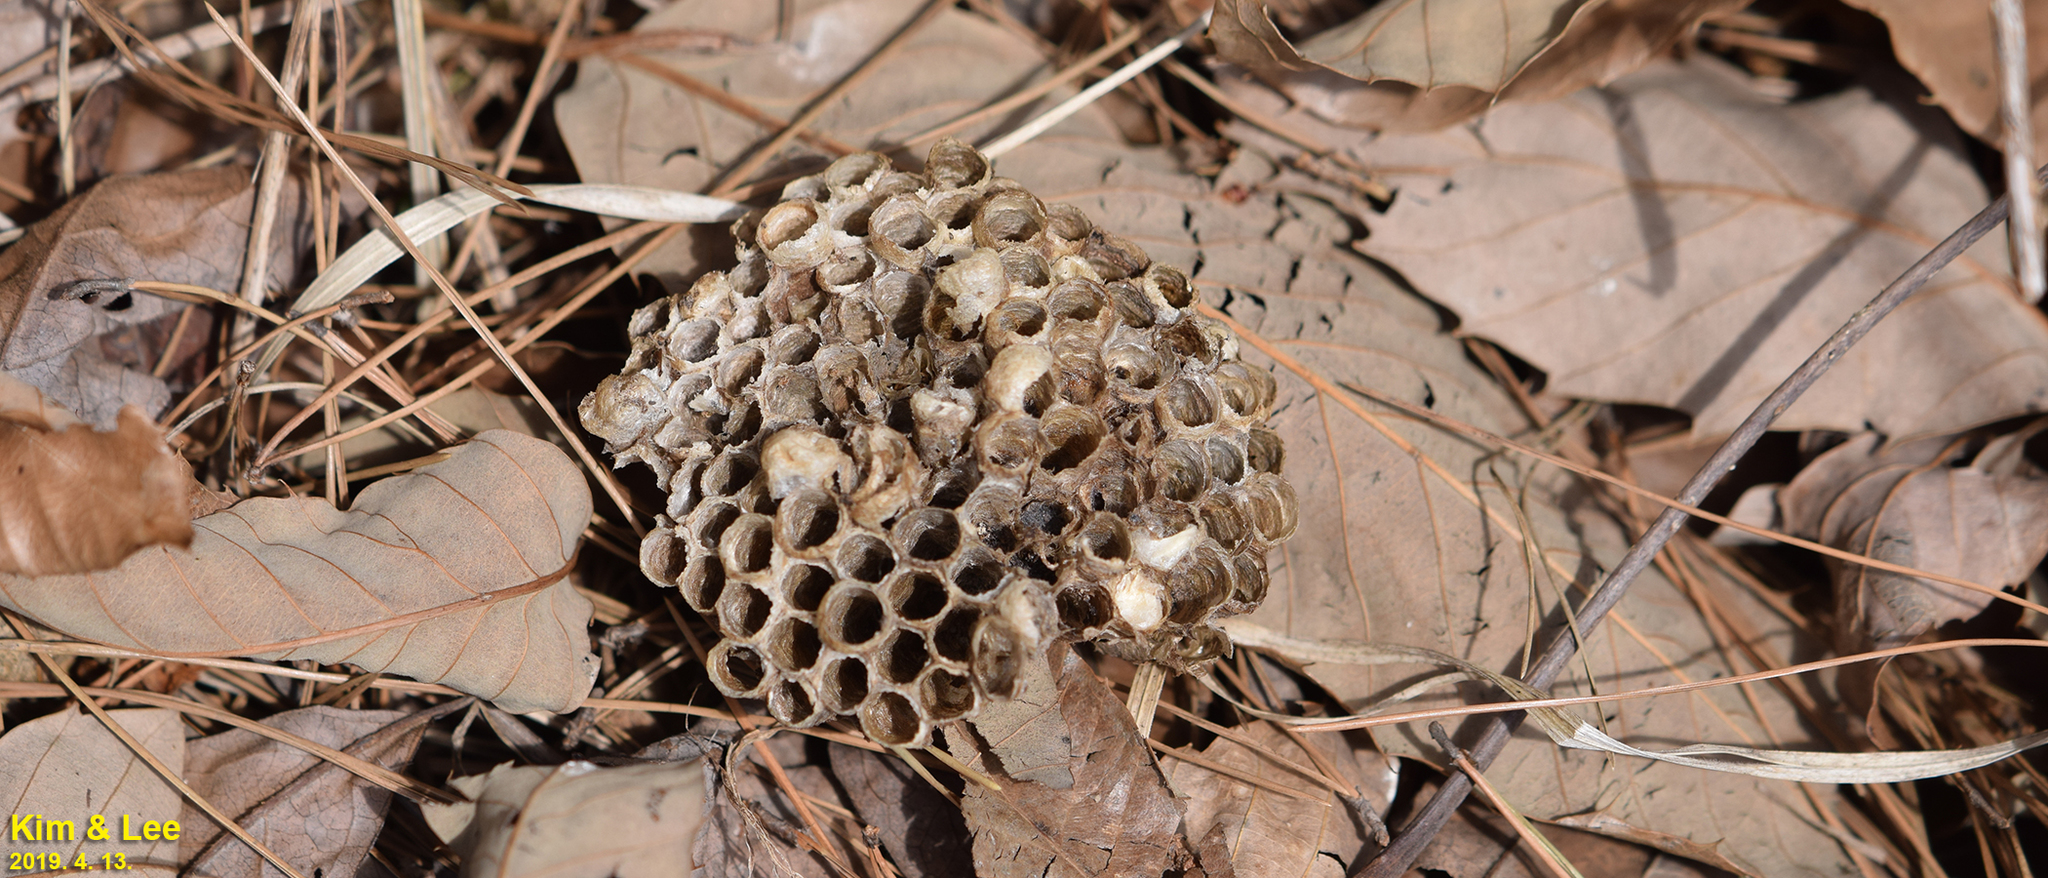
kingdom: Animalia
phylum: Arthropoda
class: Insecta
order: Hymenoptera
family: Vespidae
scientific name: Vespidae
